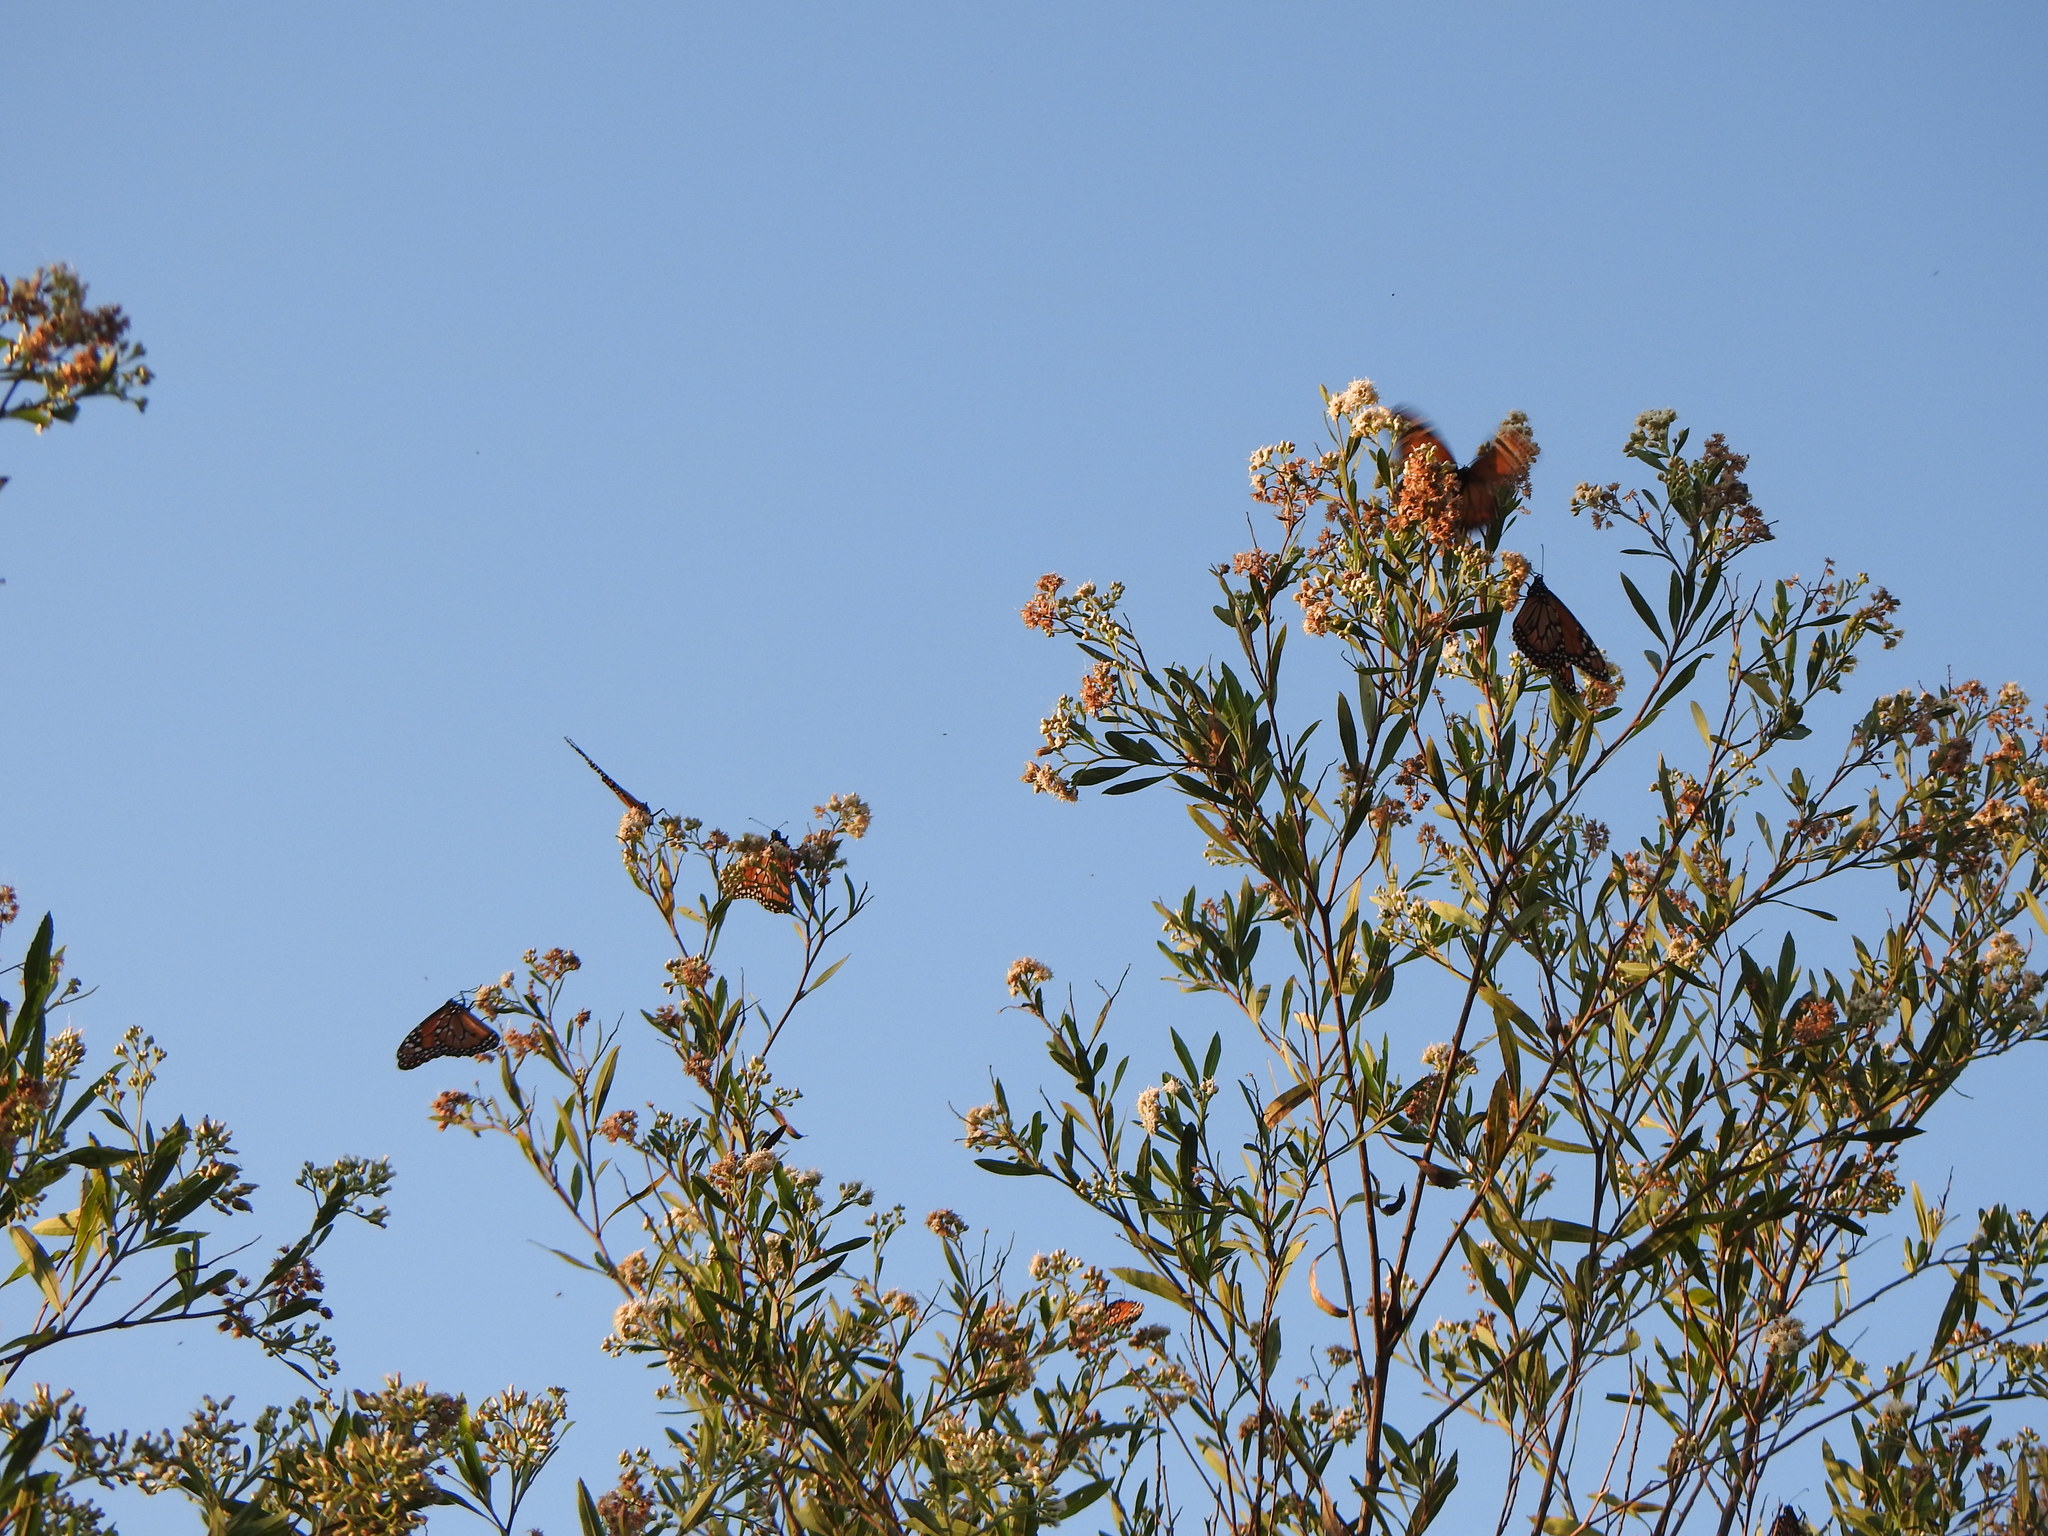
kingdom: Animalia
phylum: Arthropoda
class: Insecta
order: Lepidoptera
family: Nymphalidae
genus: Danaus
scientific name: Danaus erippus
